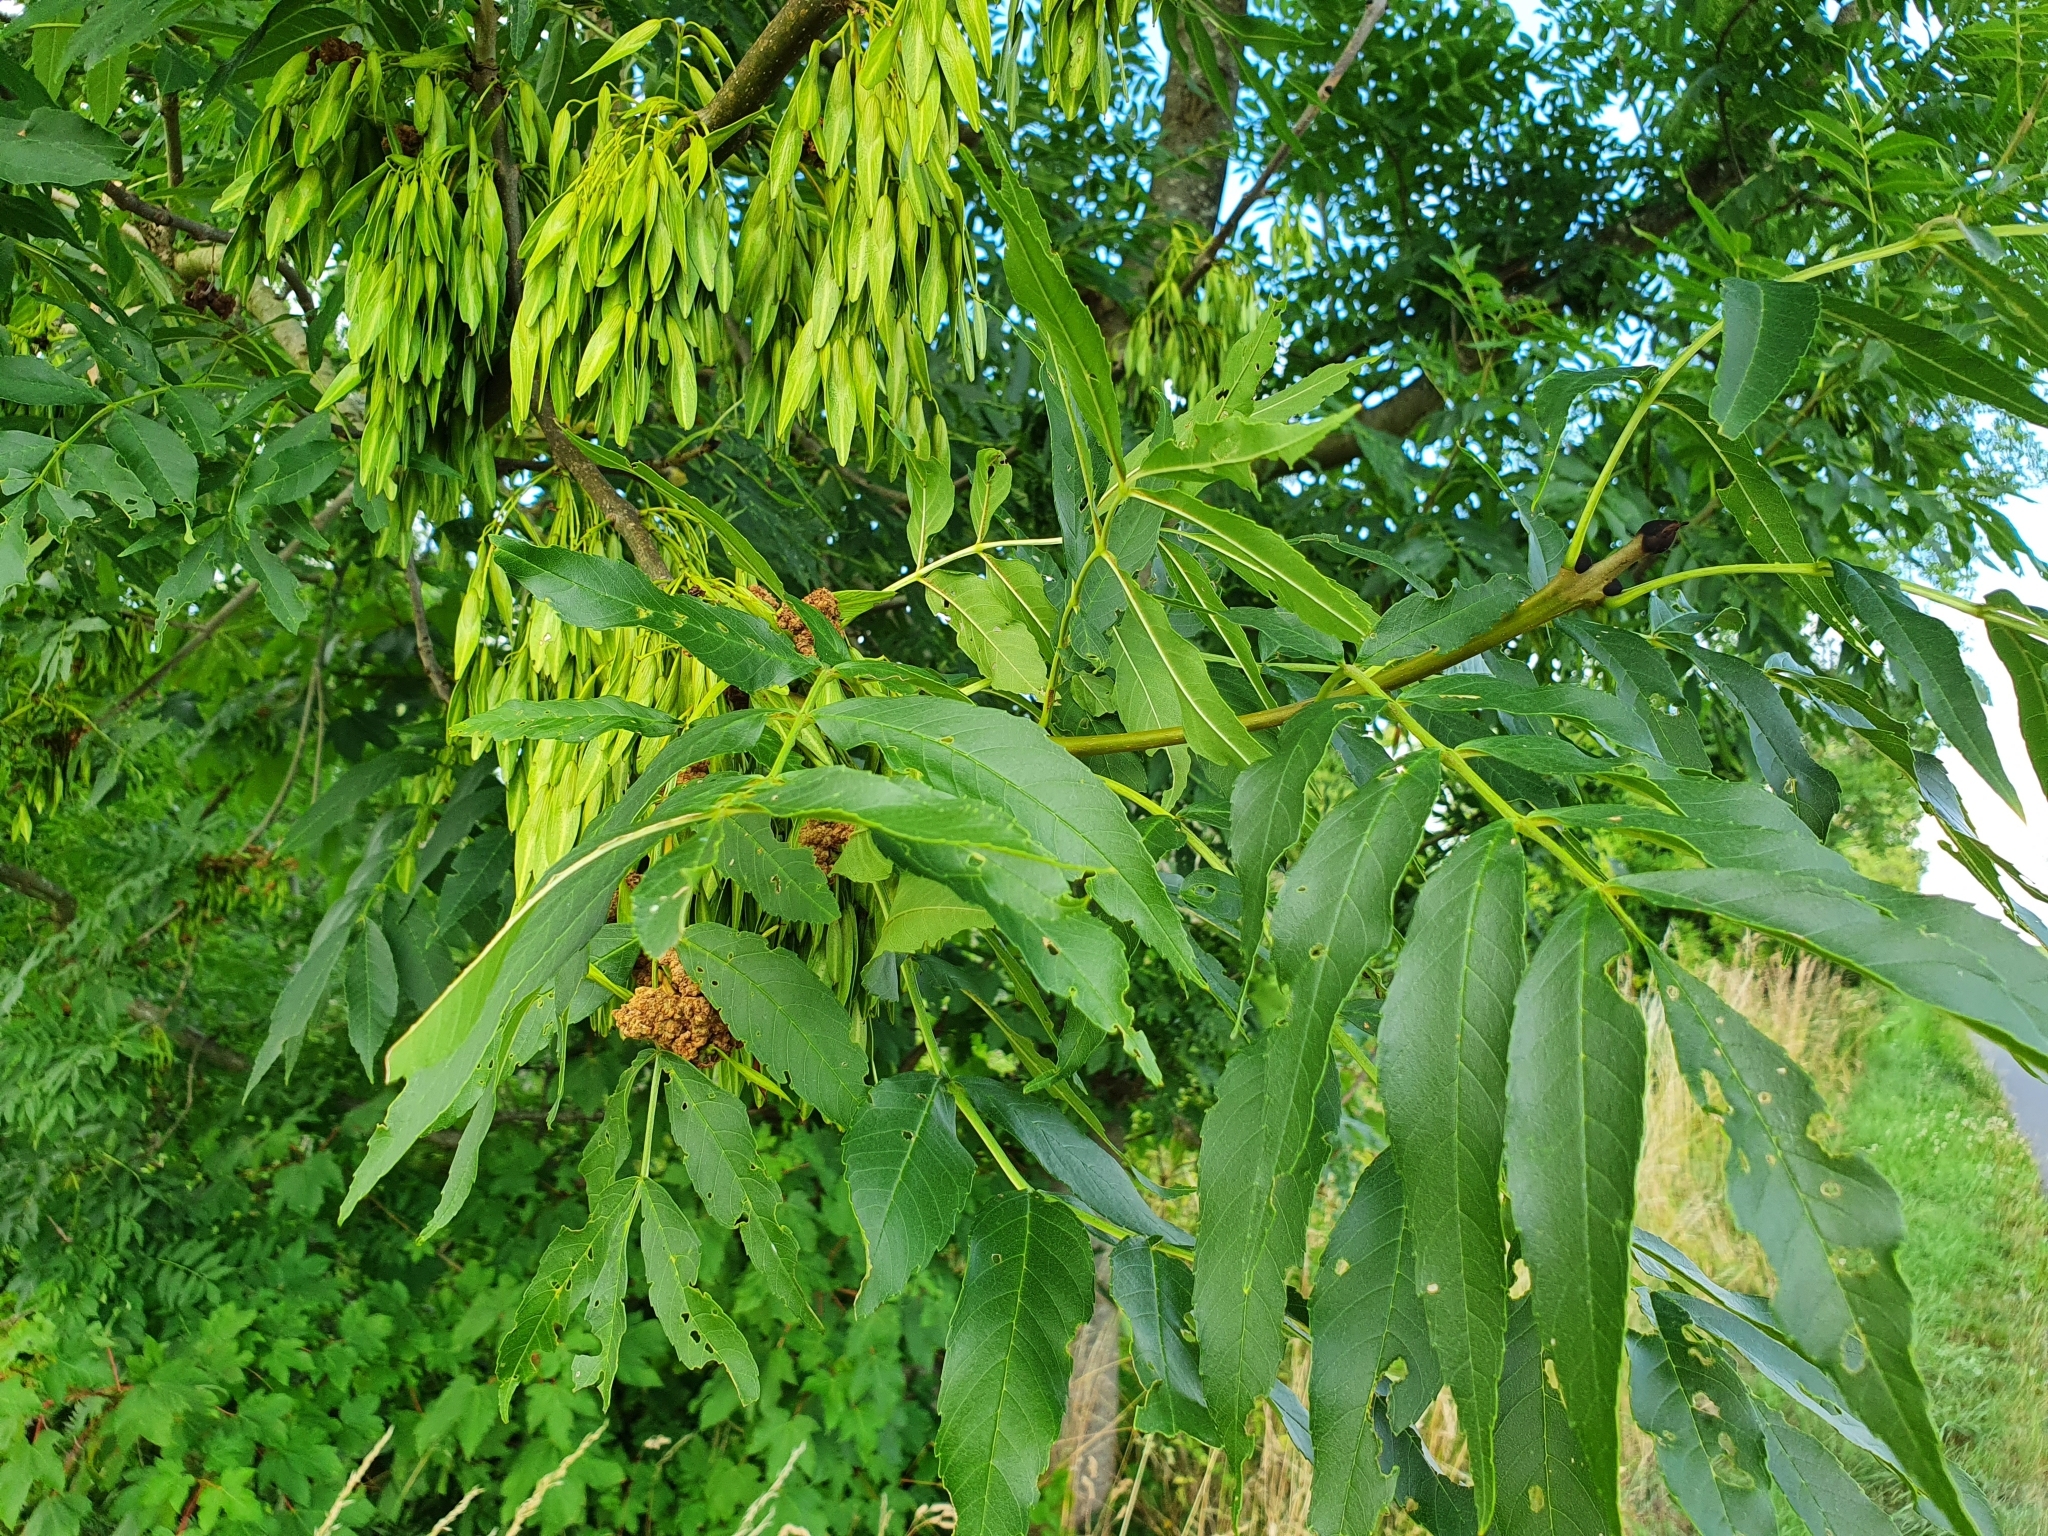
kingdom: Plantae
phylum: Tracheophyta
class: Magnoliopsida
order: Lamiales
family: Oleaceae
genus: Fraxinus
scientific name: Fraxinus excelsior
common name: European ash
